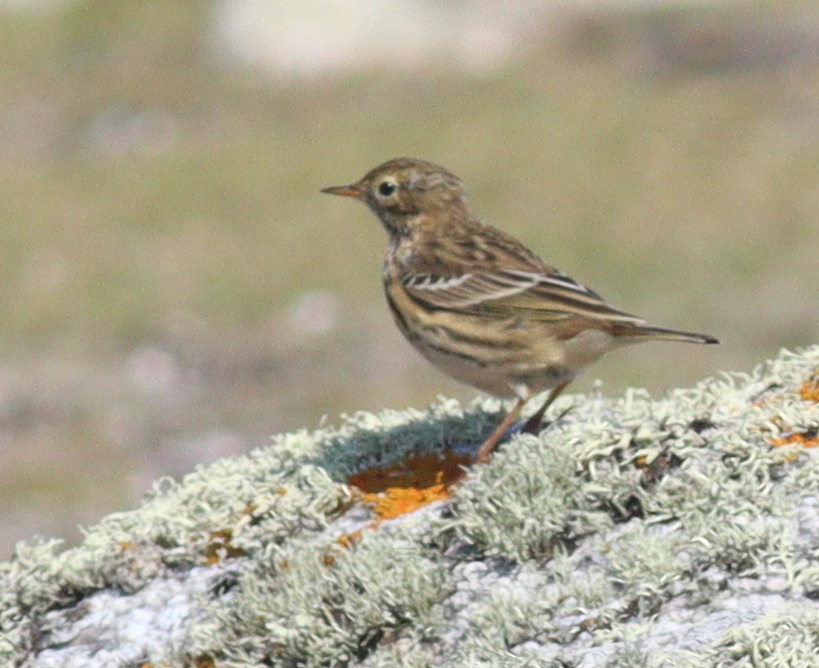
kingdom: Animalia
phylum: Chordata
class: Aves
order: Passeriformes
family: Motacillidae
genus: Anthus
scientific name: Anthus pratensis
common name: Meadow pipit
